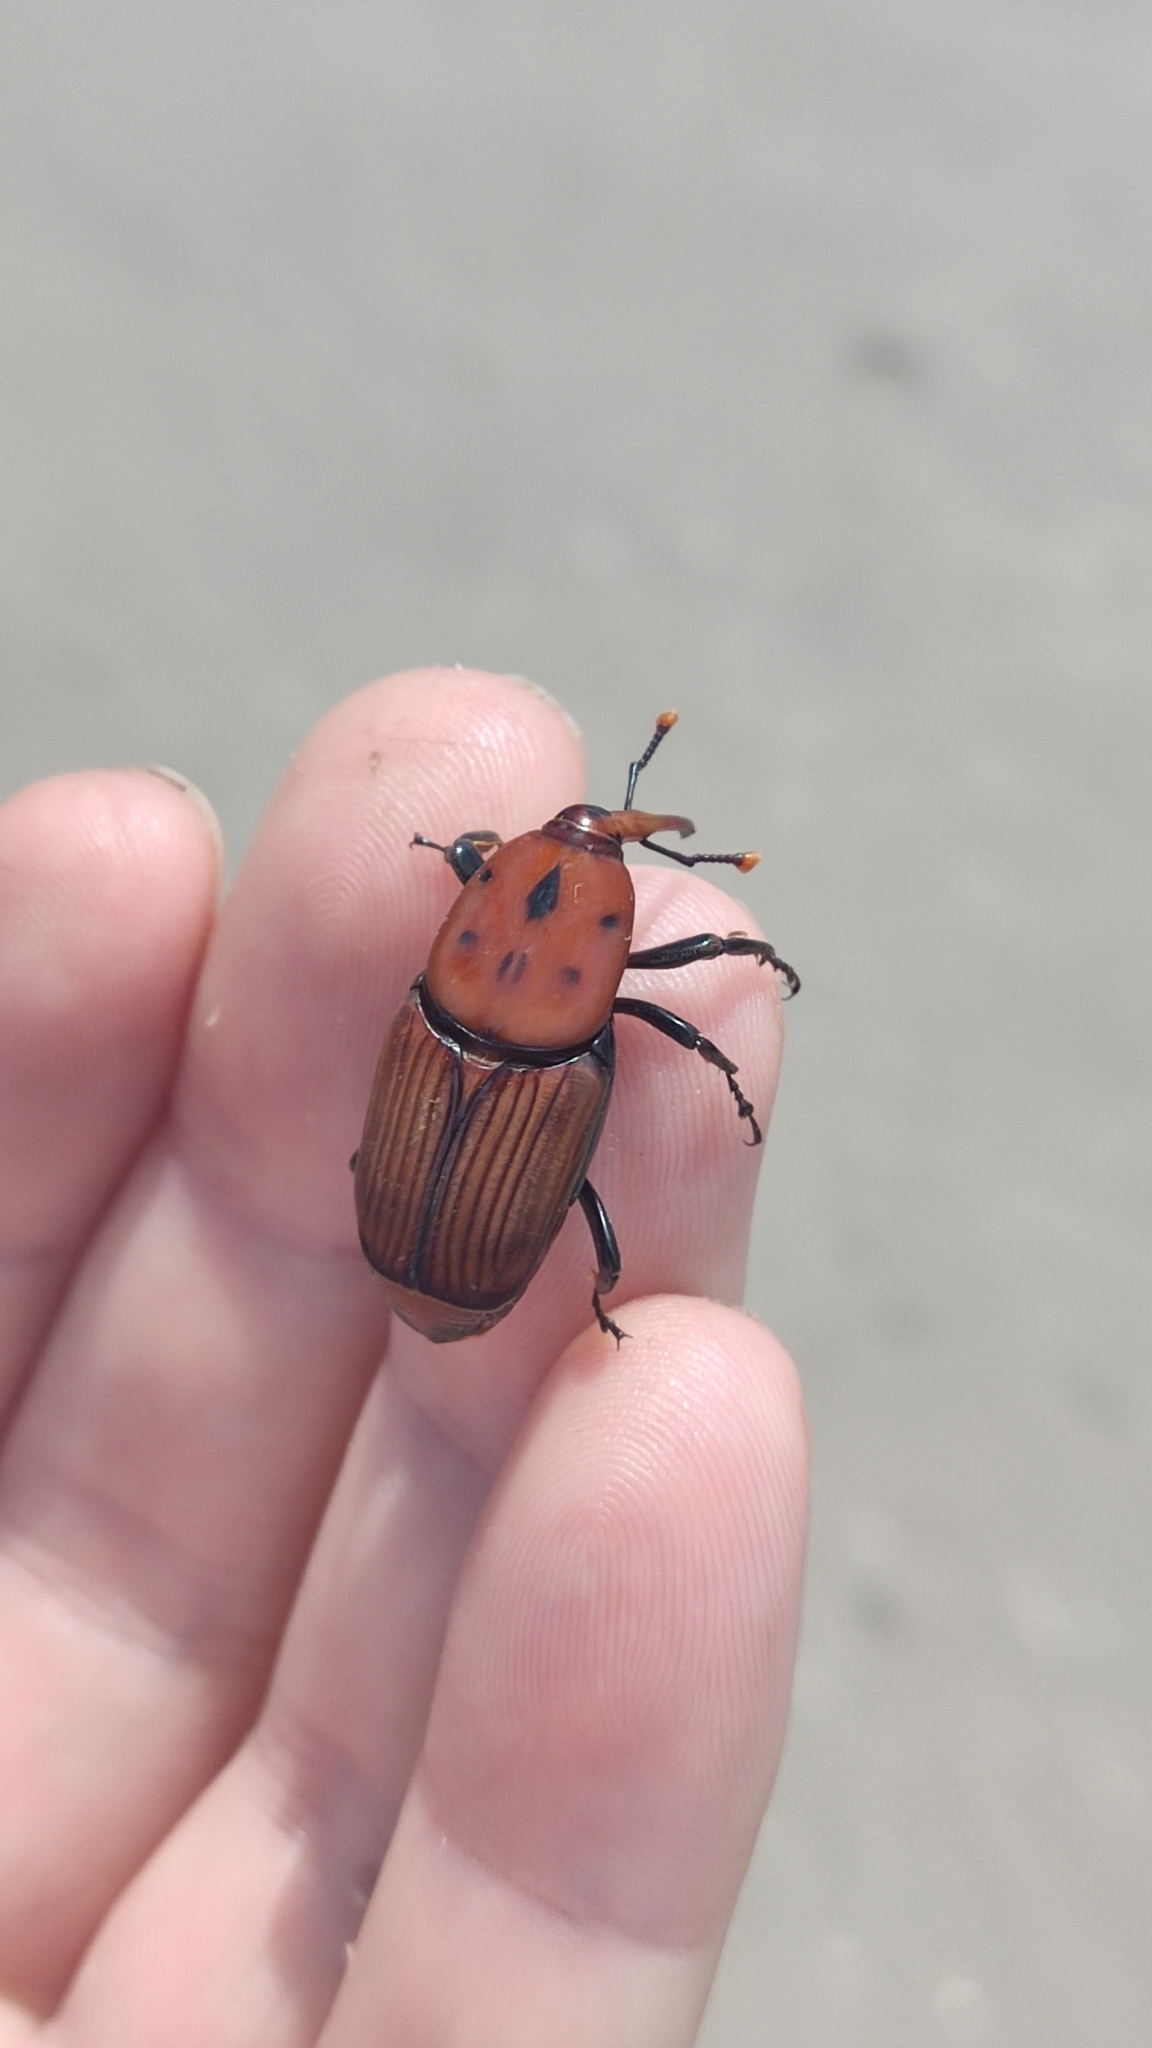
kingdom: Animalia
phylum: Arthropoda
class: Insecta
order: Coleoptera
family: Dryophthoridae
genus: Rhynchophorus
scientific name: Rhynchophorus ferrugineus
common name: Red palm weevil
